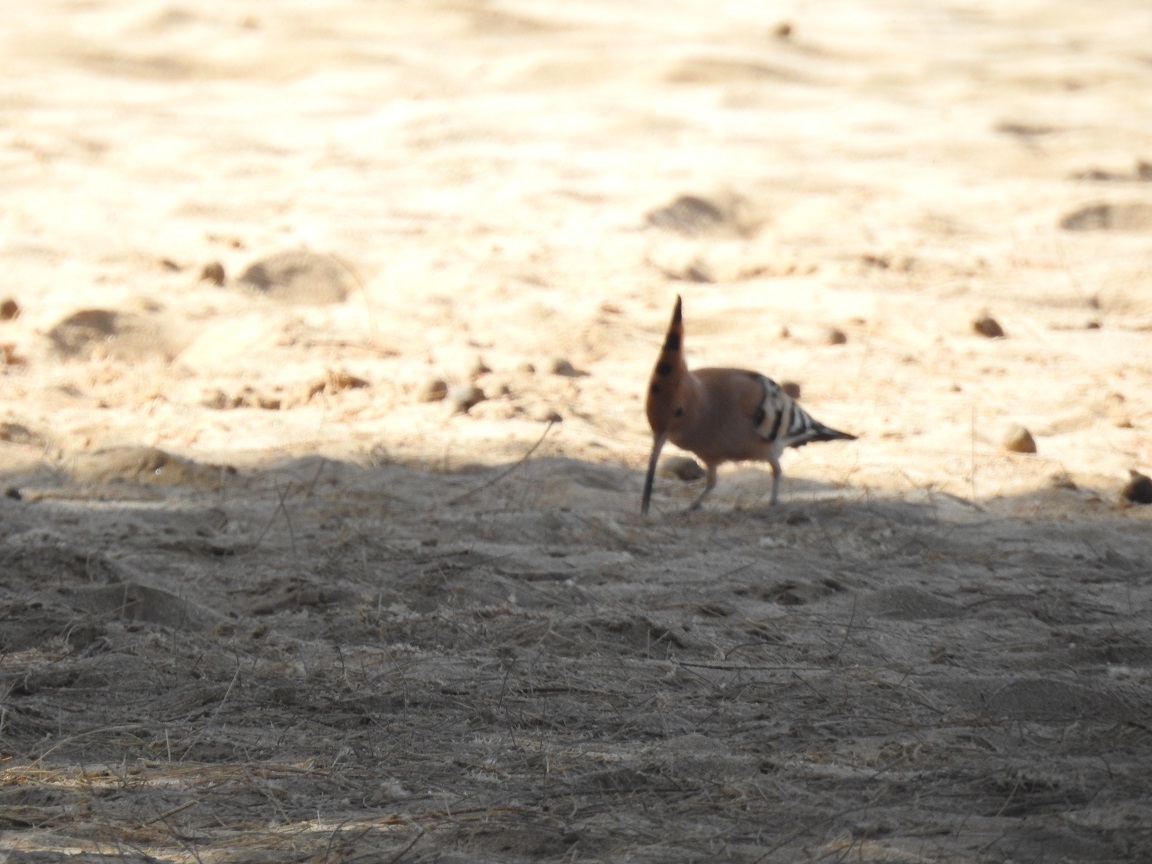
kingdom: Animalia
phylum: Chordata
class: Aves
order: Bucerotiformes
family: Upupidae
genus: Upupa
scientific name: Upupa epops
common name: Eurasian hoopoe
